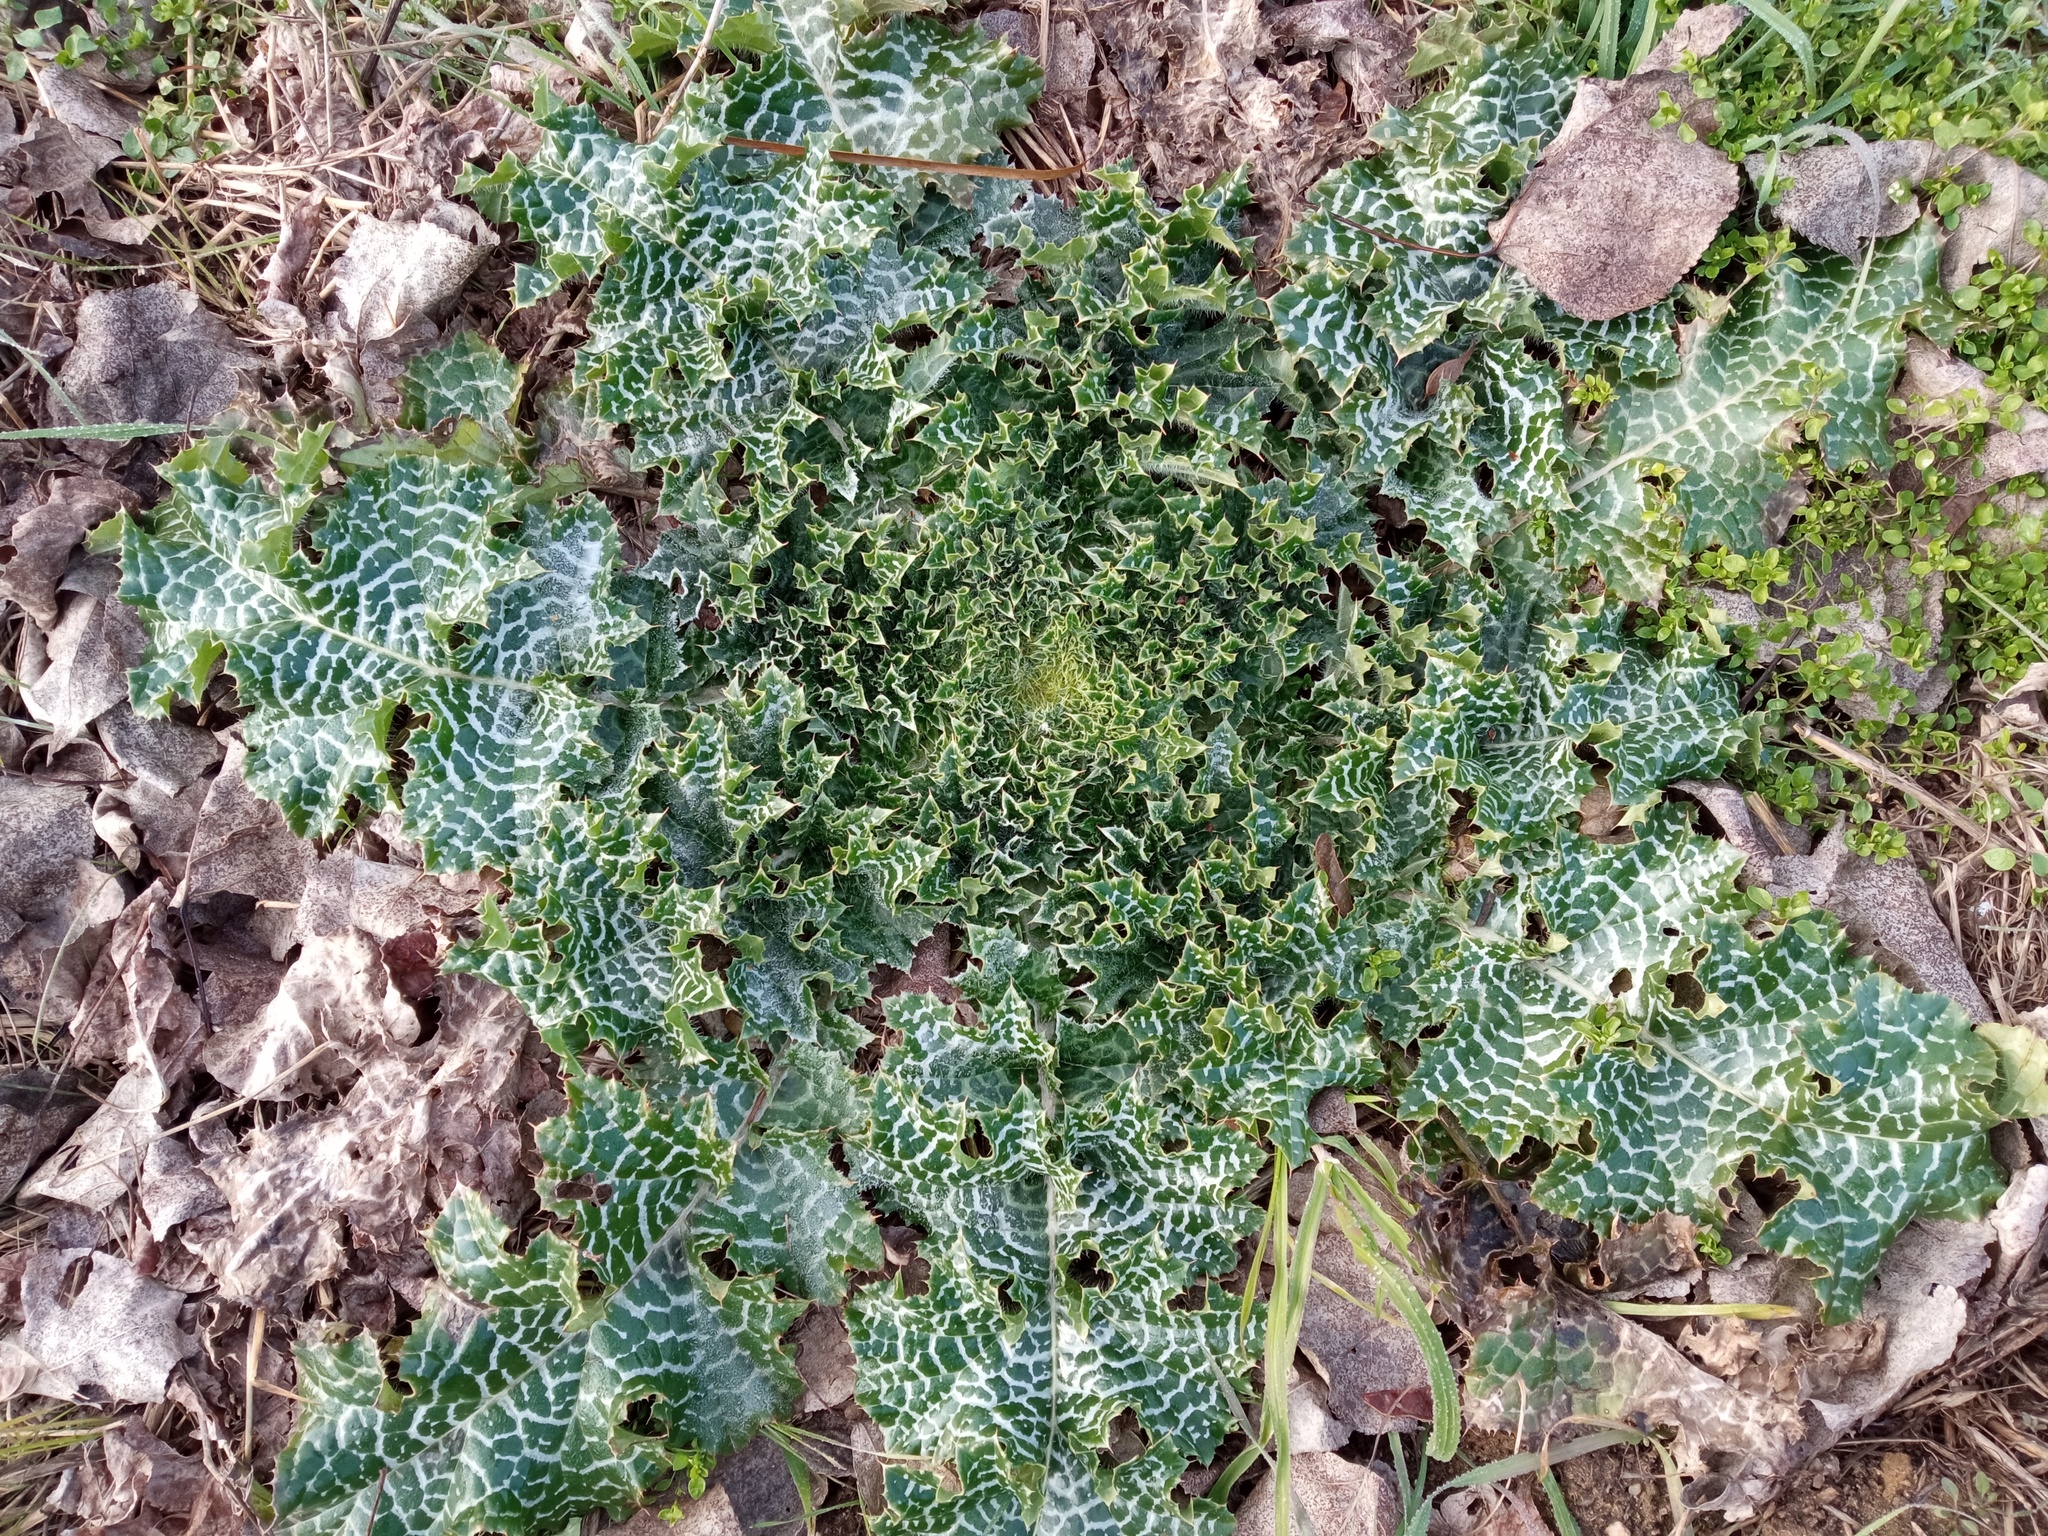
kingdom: Plantae
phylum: Tracheophyta
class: Magnoliopsida
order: Asterales
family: Asteraceae
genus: Silybum
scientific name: Silybum marianum
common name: Milk thistle
